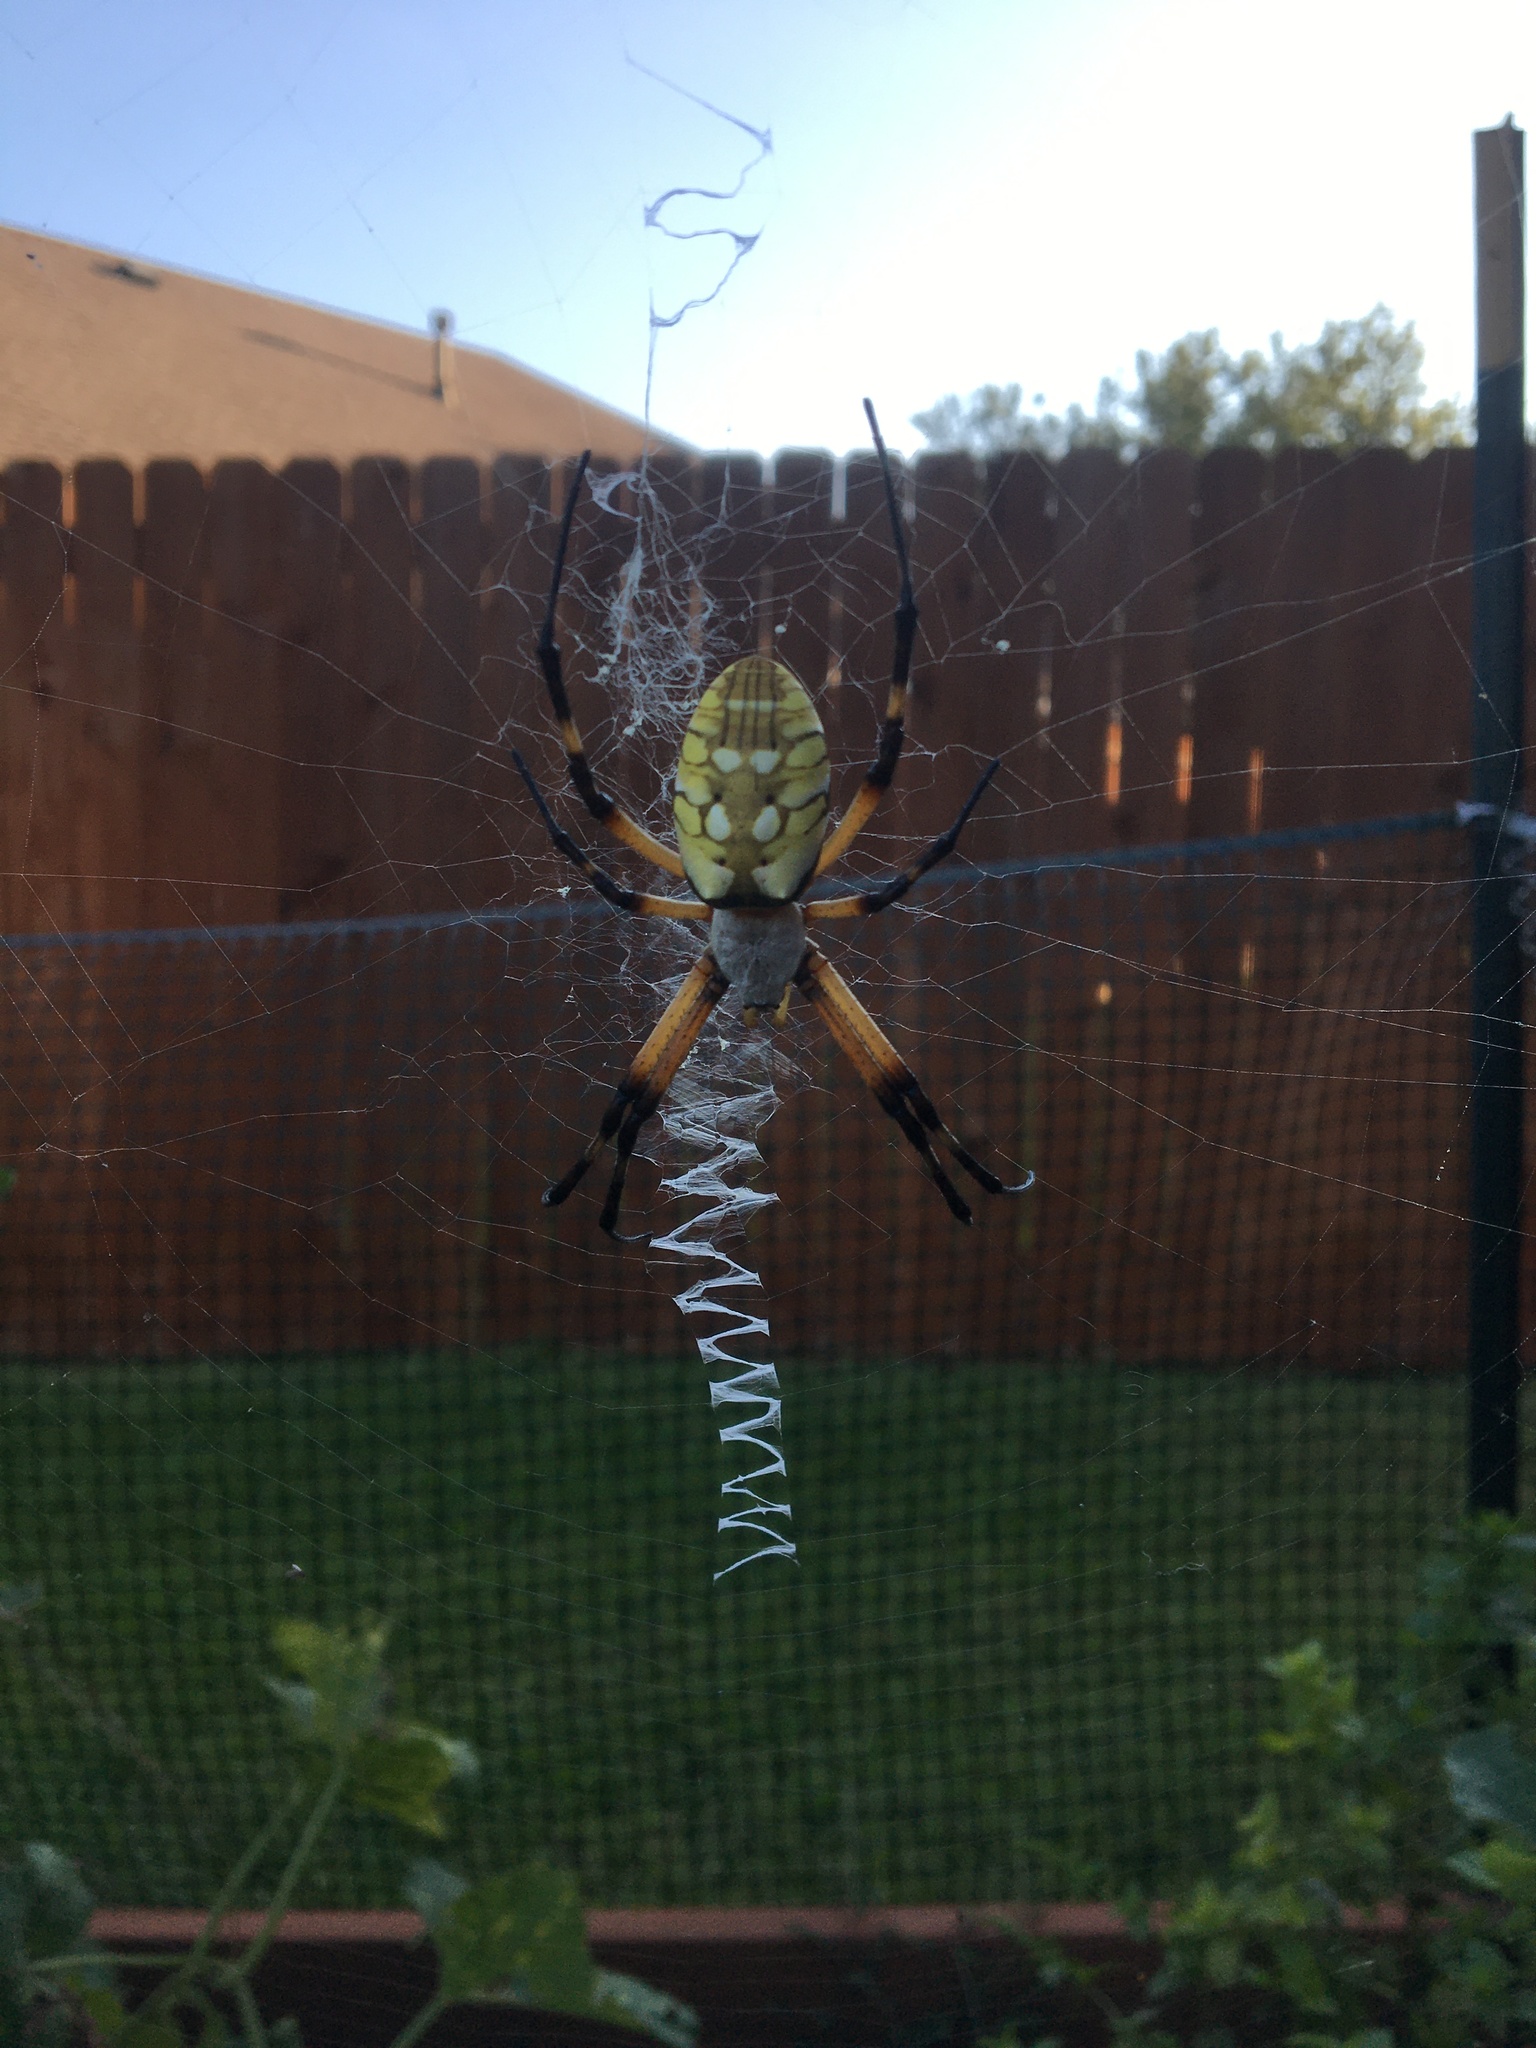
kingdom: Animalia
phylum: Arthropoda
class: Arachnida
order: Araneae
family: Araneidae
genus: Argiope
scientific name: Argiope aurantia
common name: Orb weavers
